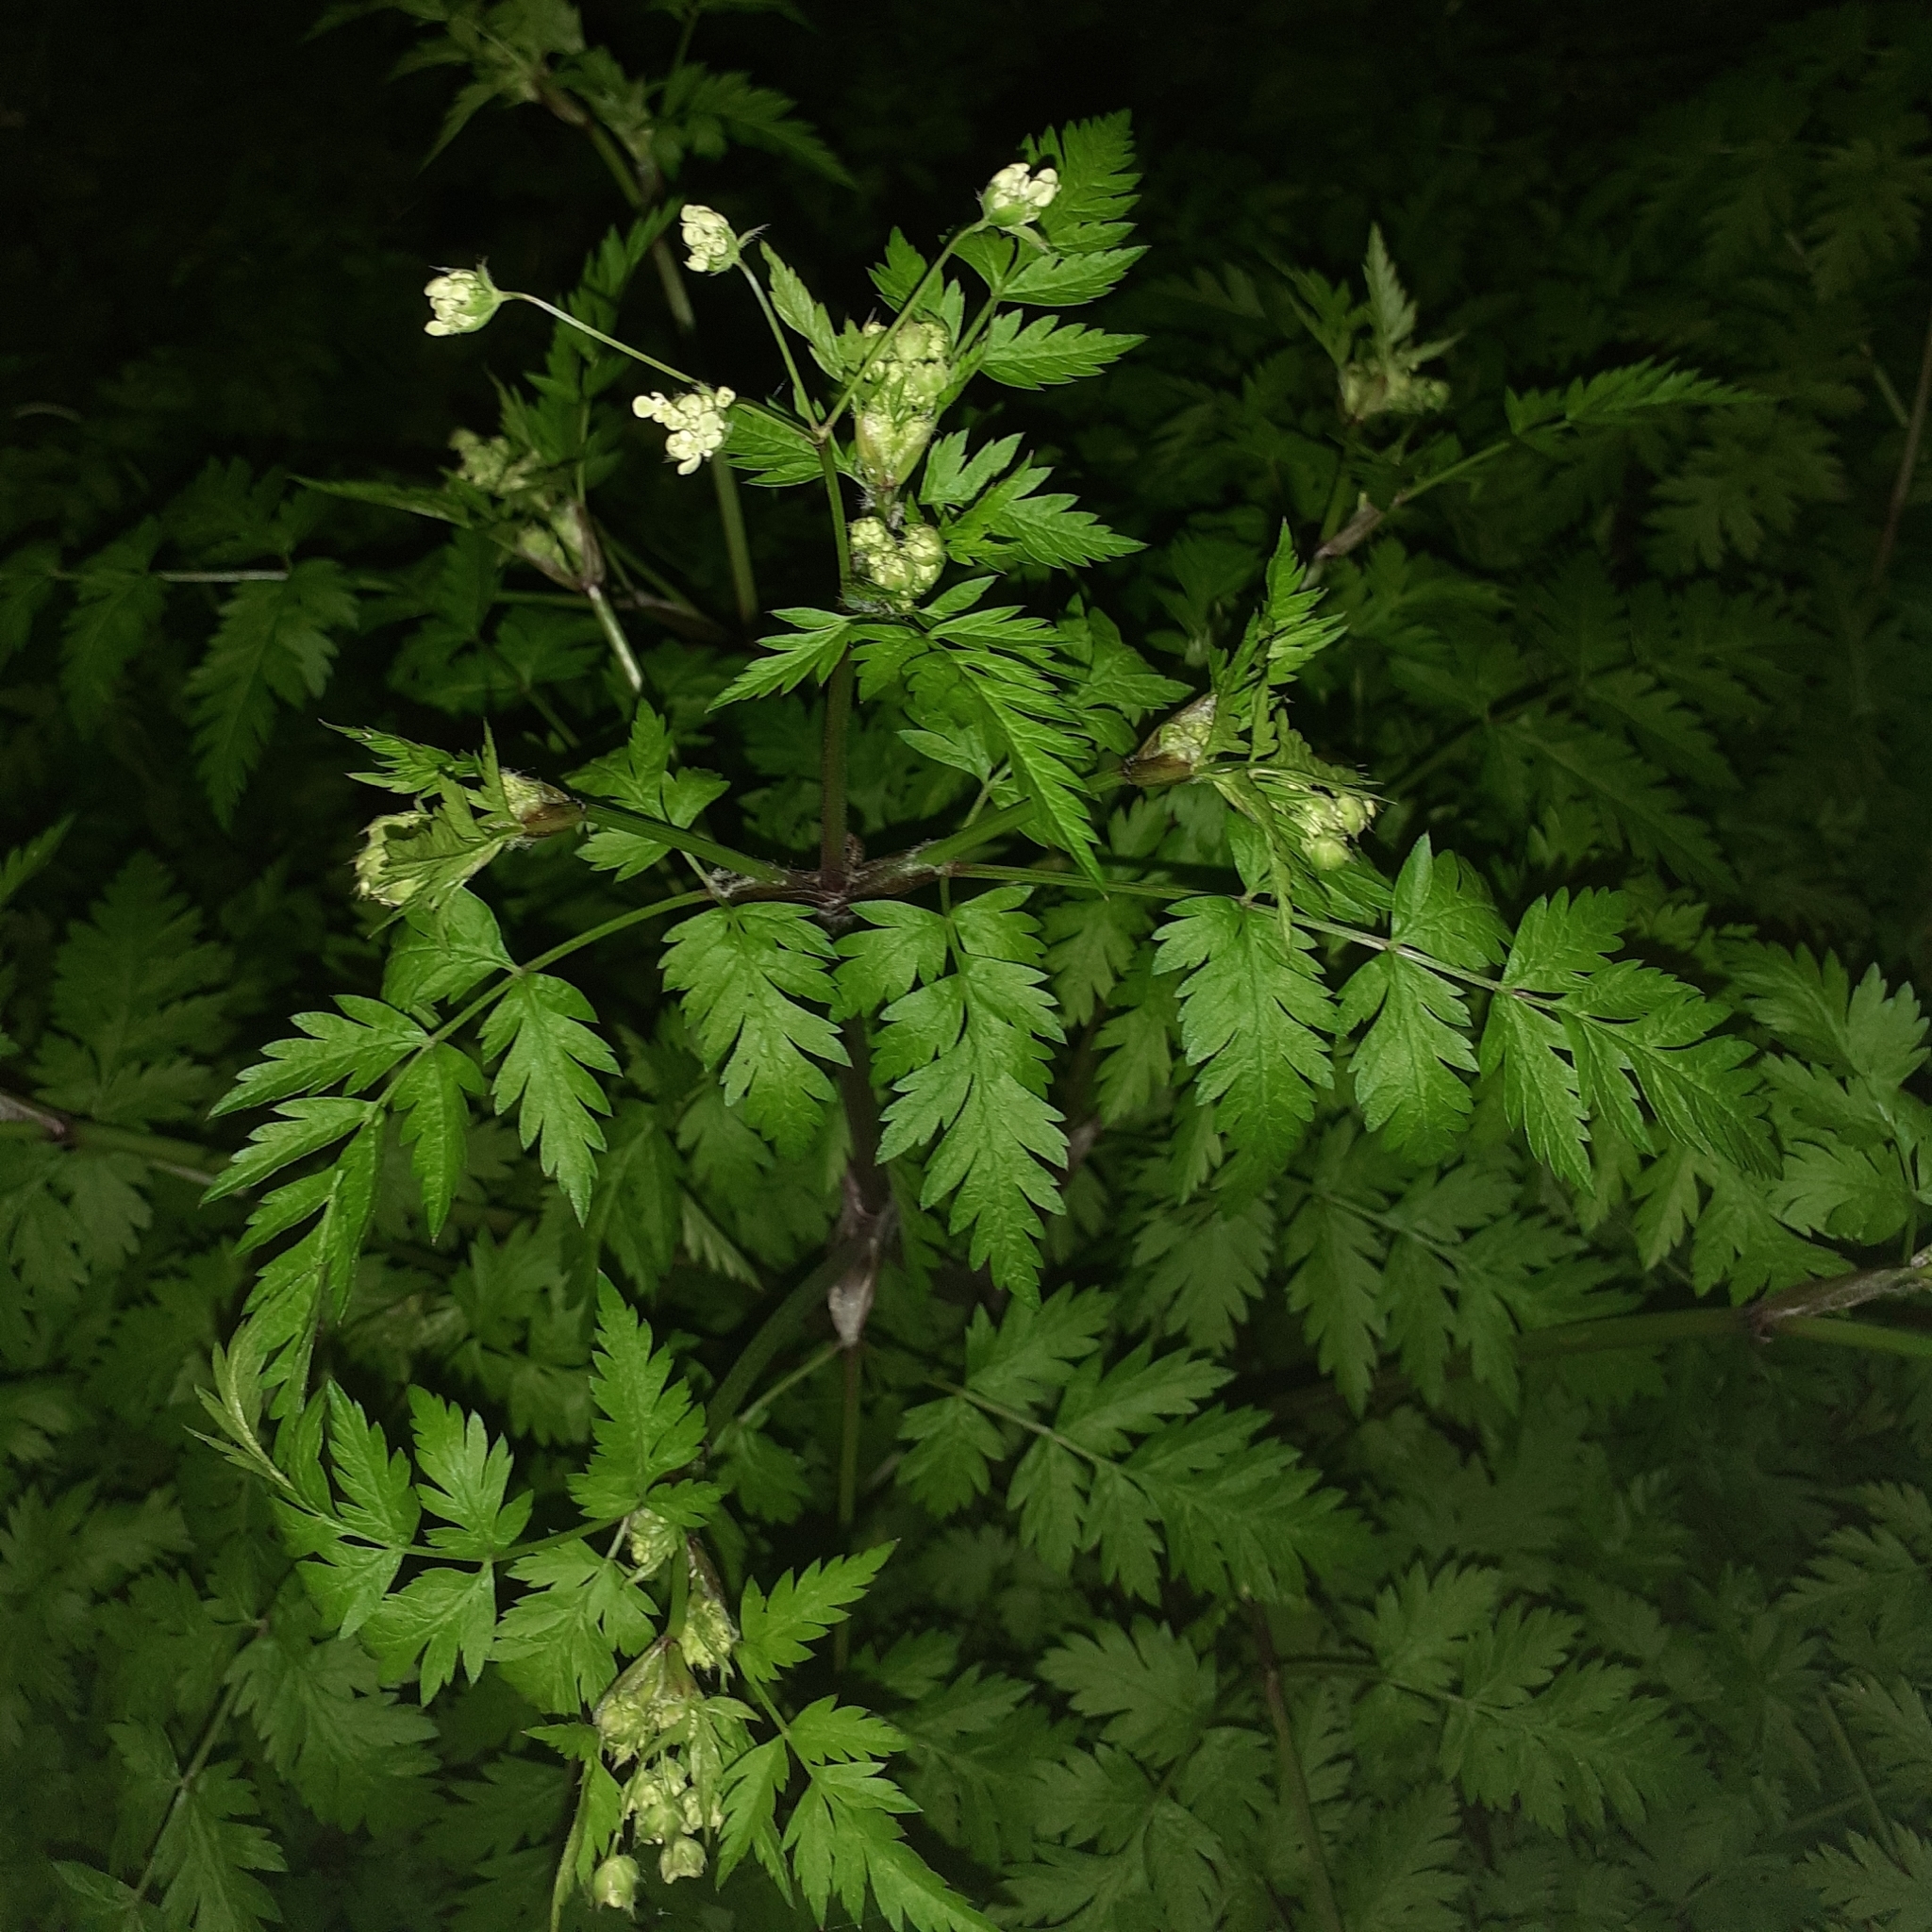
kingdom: Plantae
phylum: Tracheophyta
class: Magnoliopsida
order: Apiales
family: Apiaceae
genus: Anthriscus
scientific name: Anthriscus sylvestris
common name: Cow parsley
